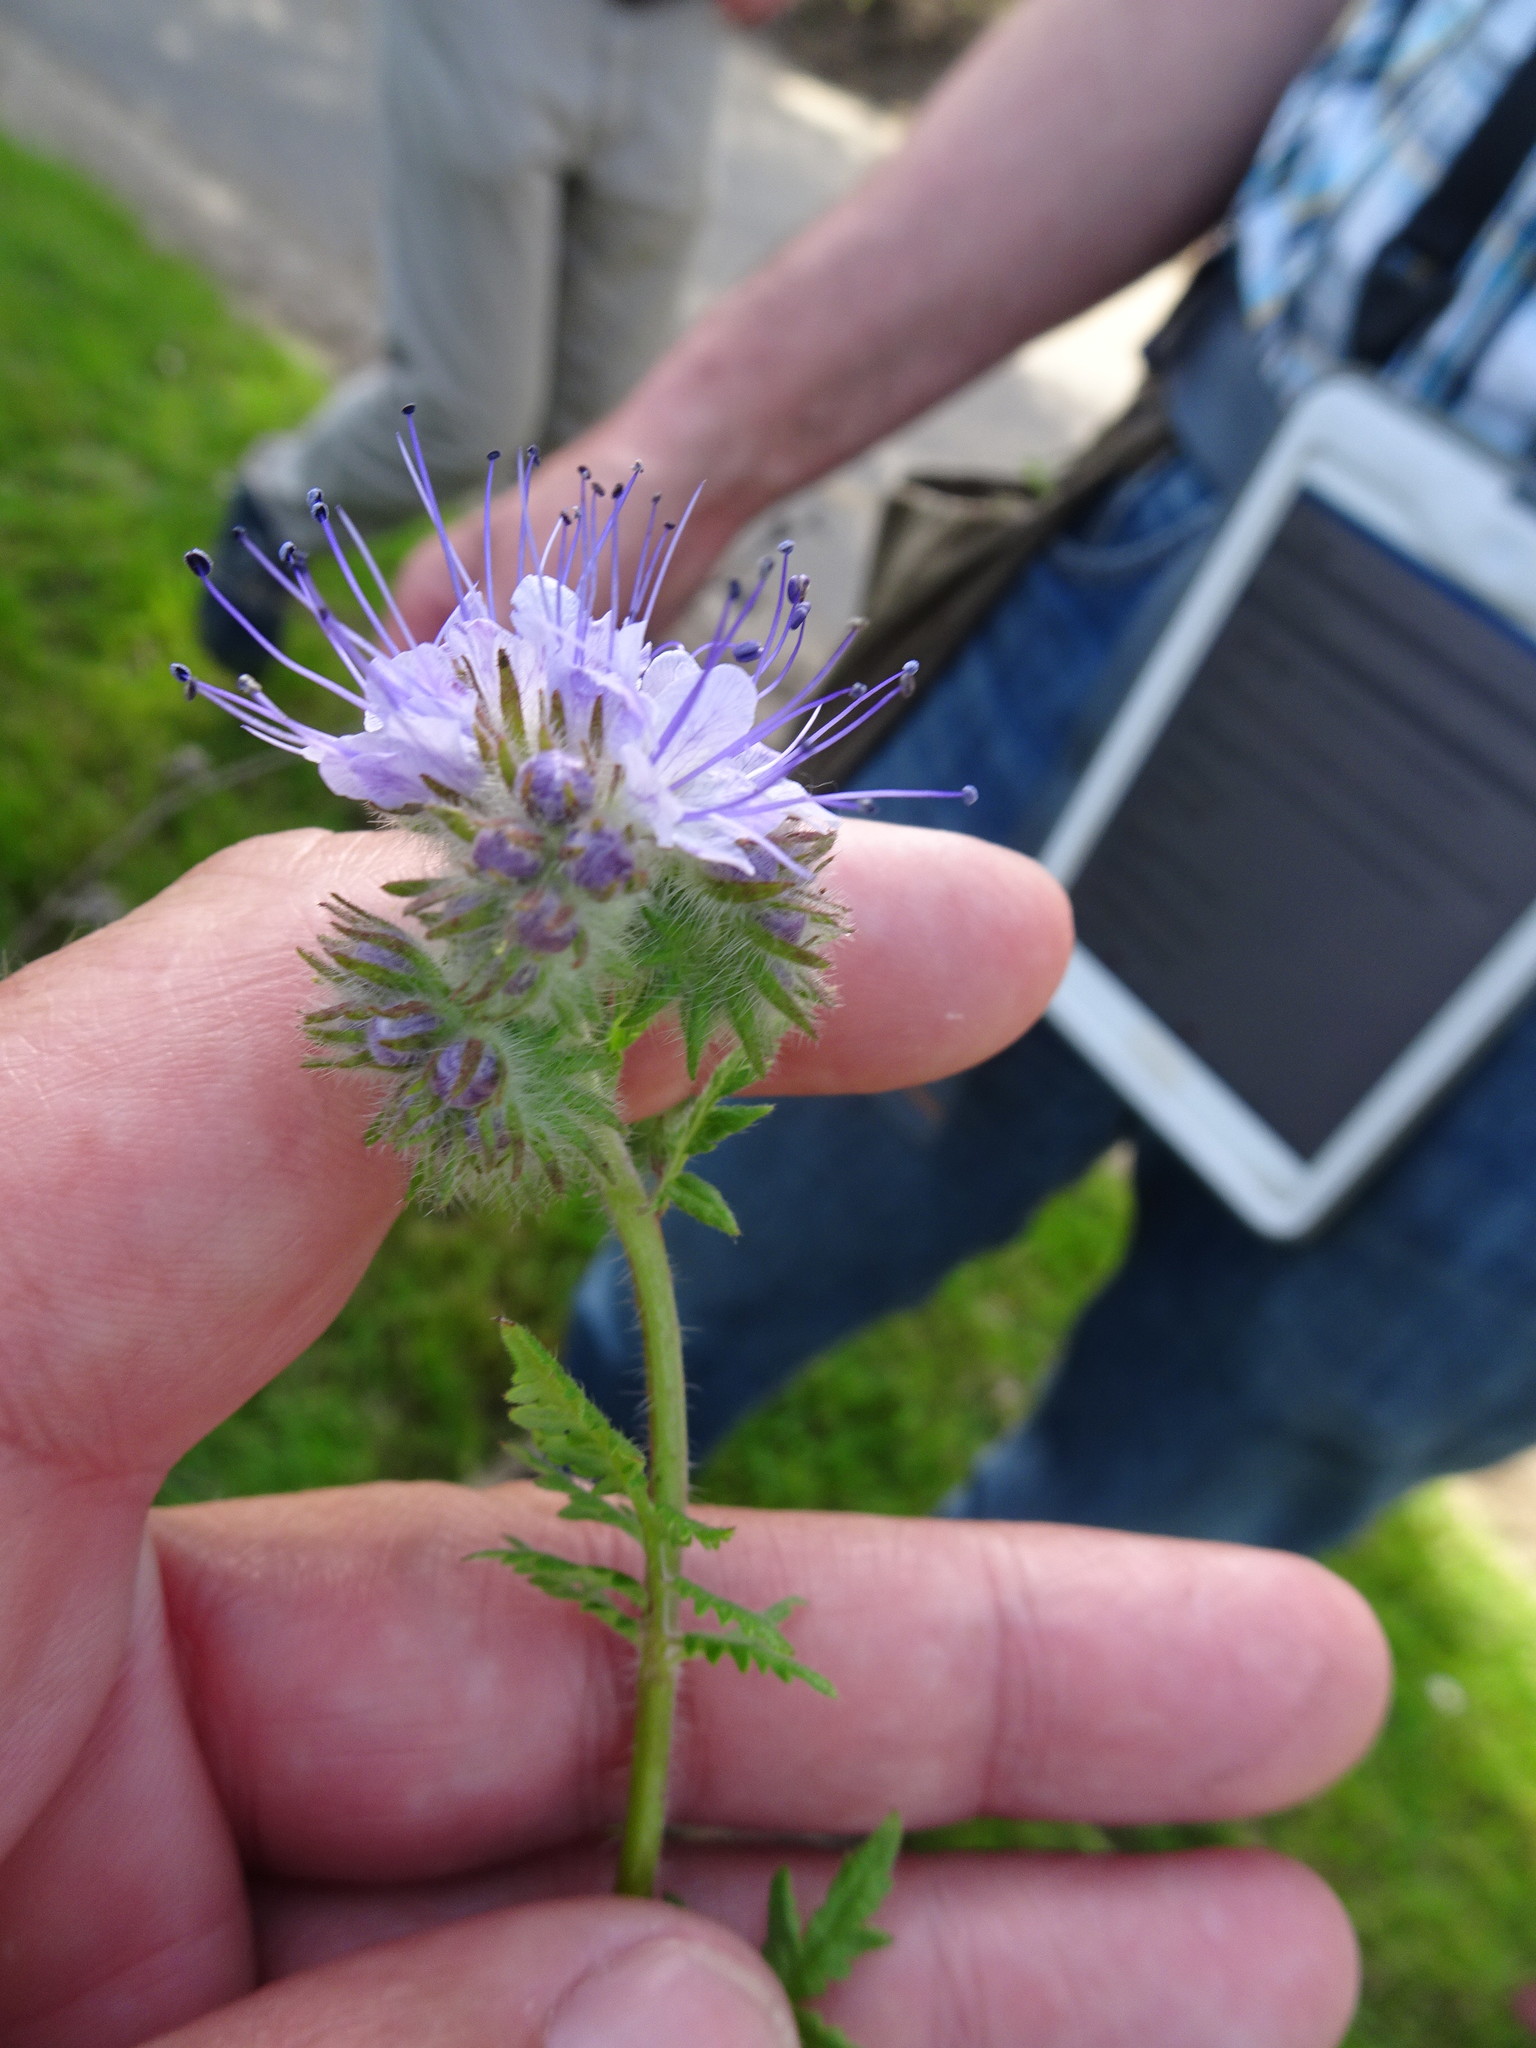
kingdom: Plantae
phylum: Tracheophyta
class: Magnoliopsida
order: Boraginales
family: Hydrophyllaceae
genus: Phacelia
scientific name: Phacelia tanacetifolia
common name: Phacelia
